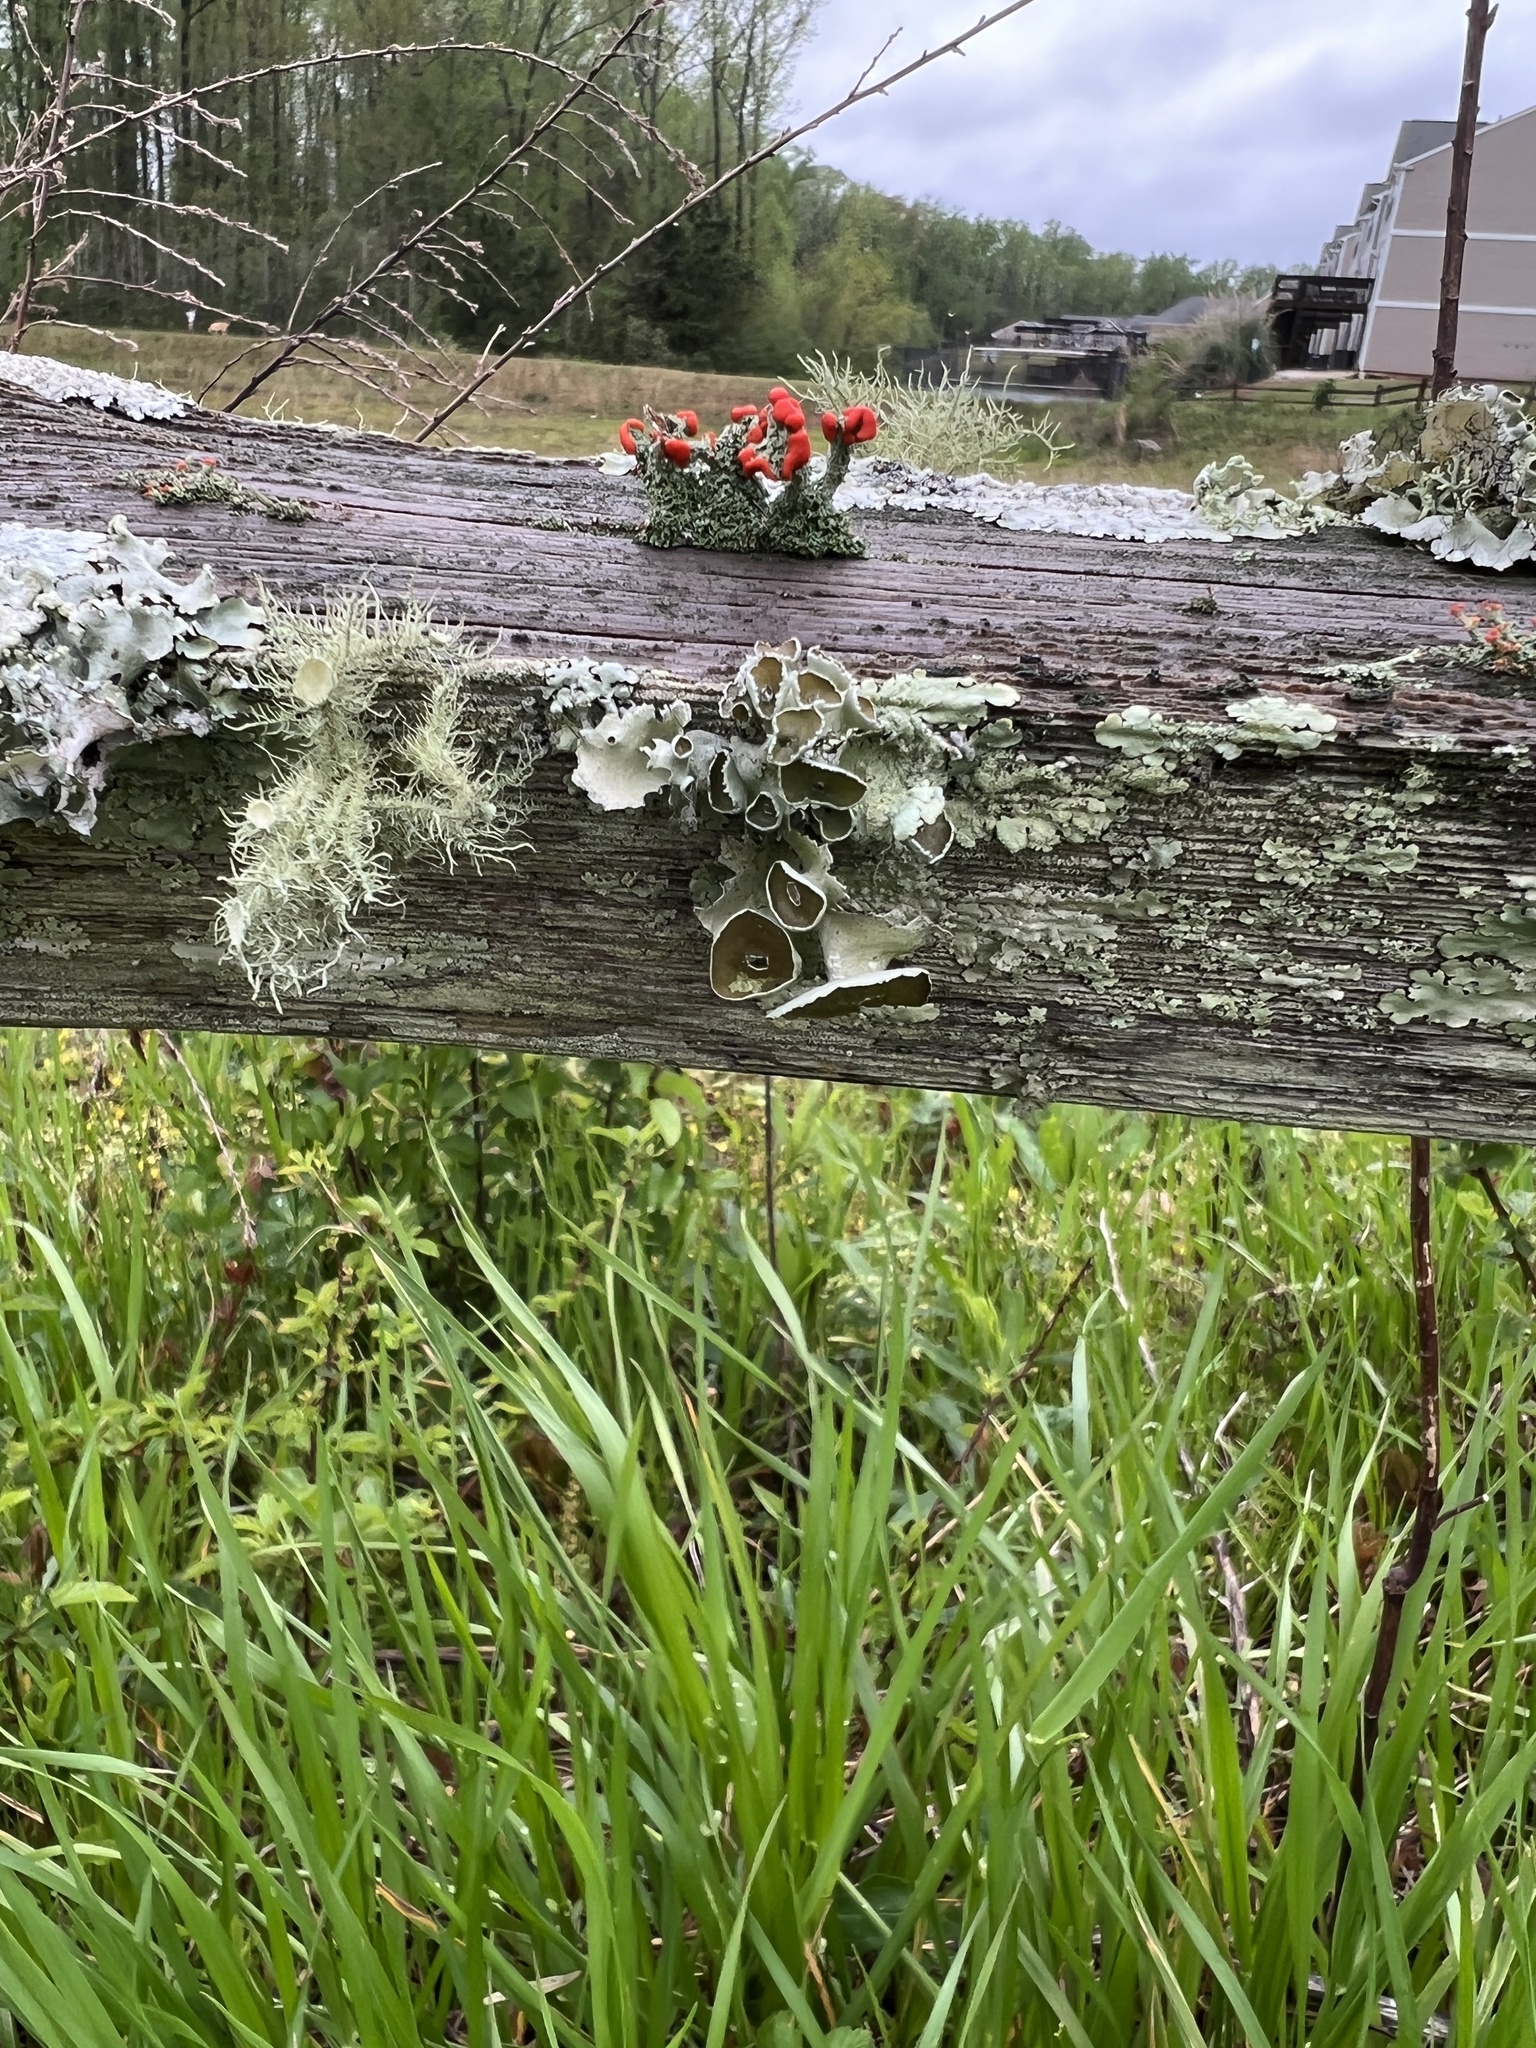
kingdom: Fungi
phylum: Ascomycota
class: Lecanoromycetes
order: Lecanorales
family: Parmeliaceae
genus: Parmotrema
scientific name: Parmotrema perforatum
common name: Perforated ruffle lichen
